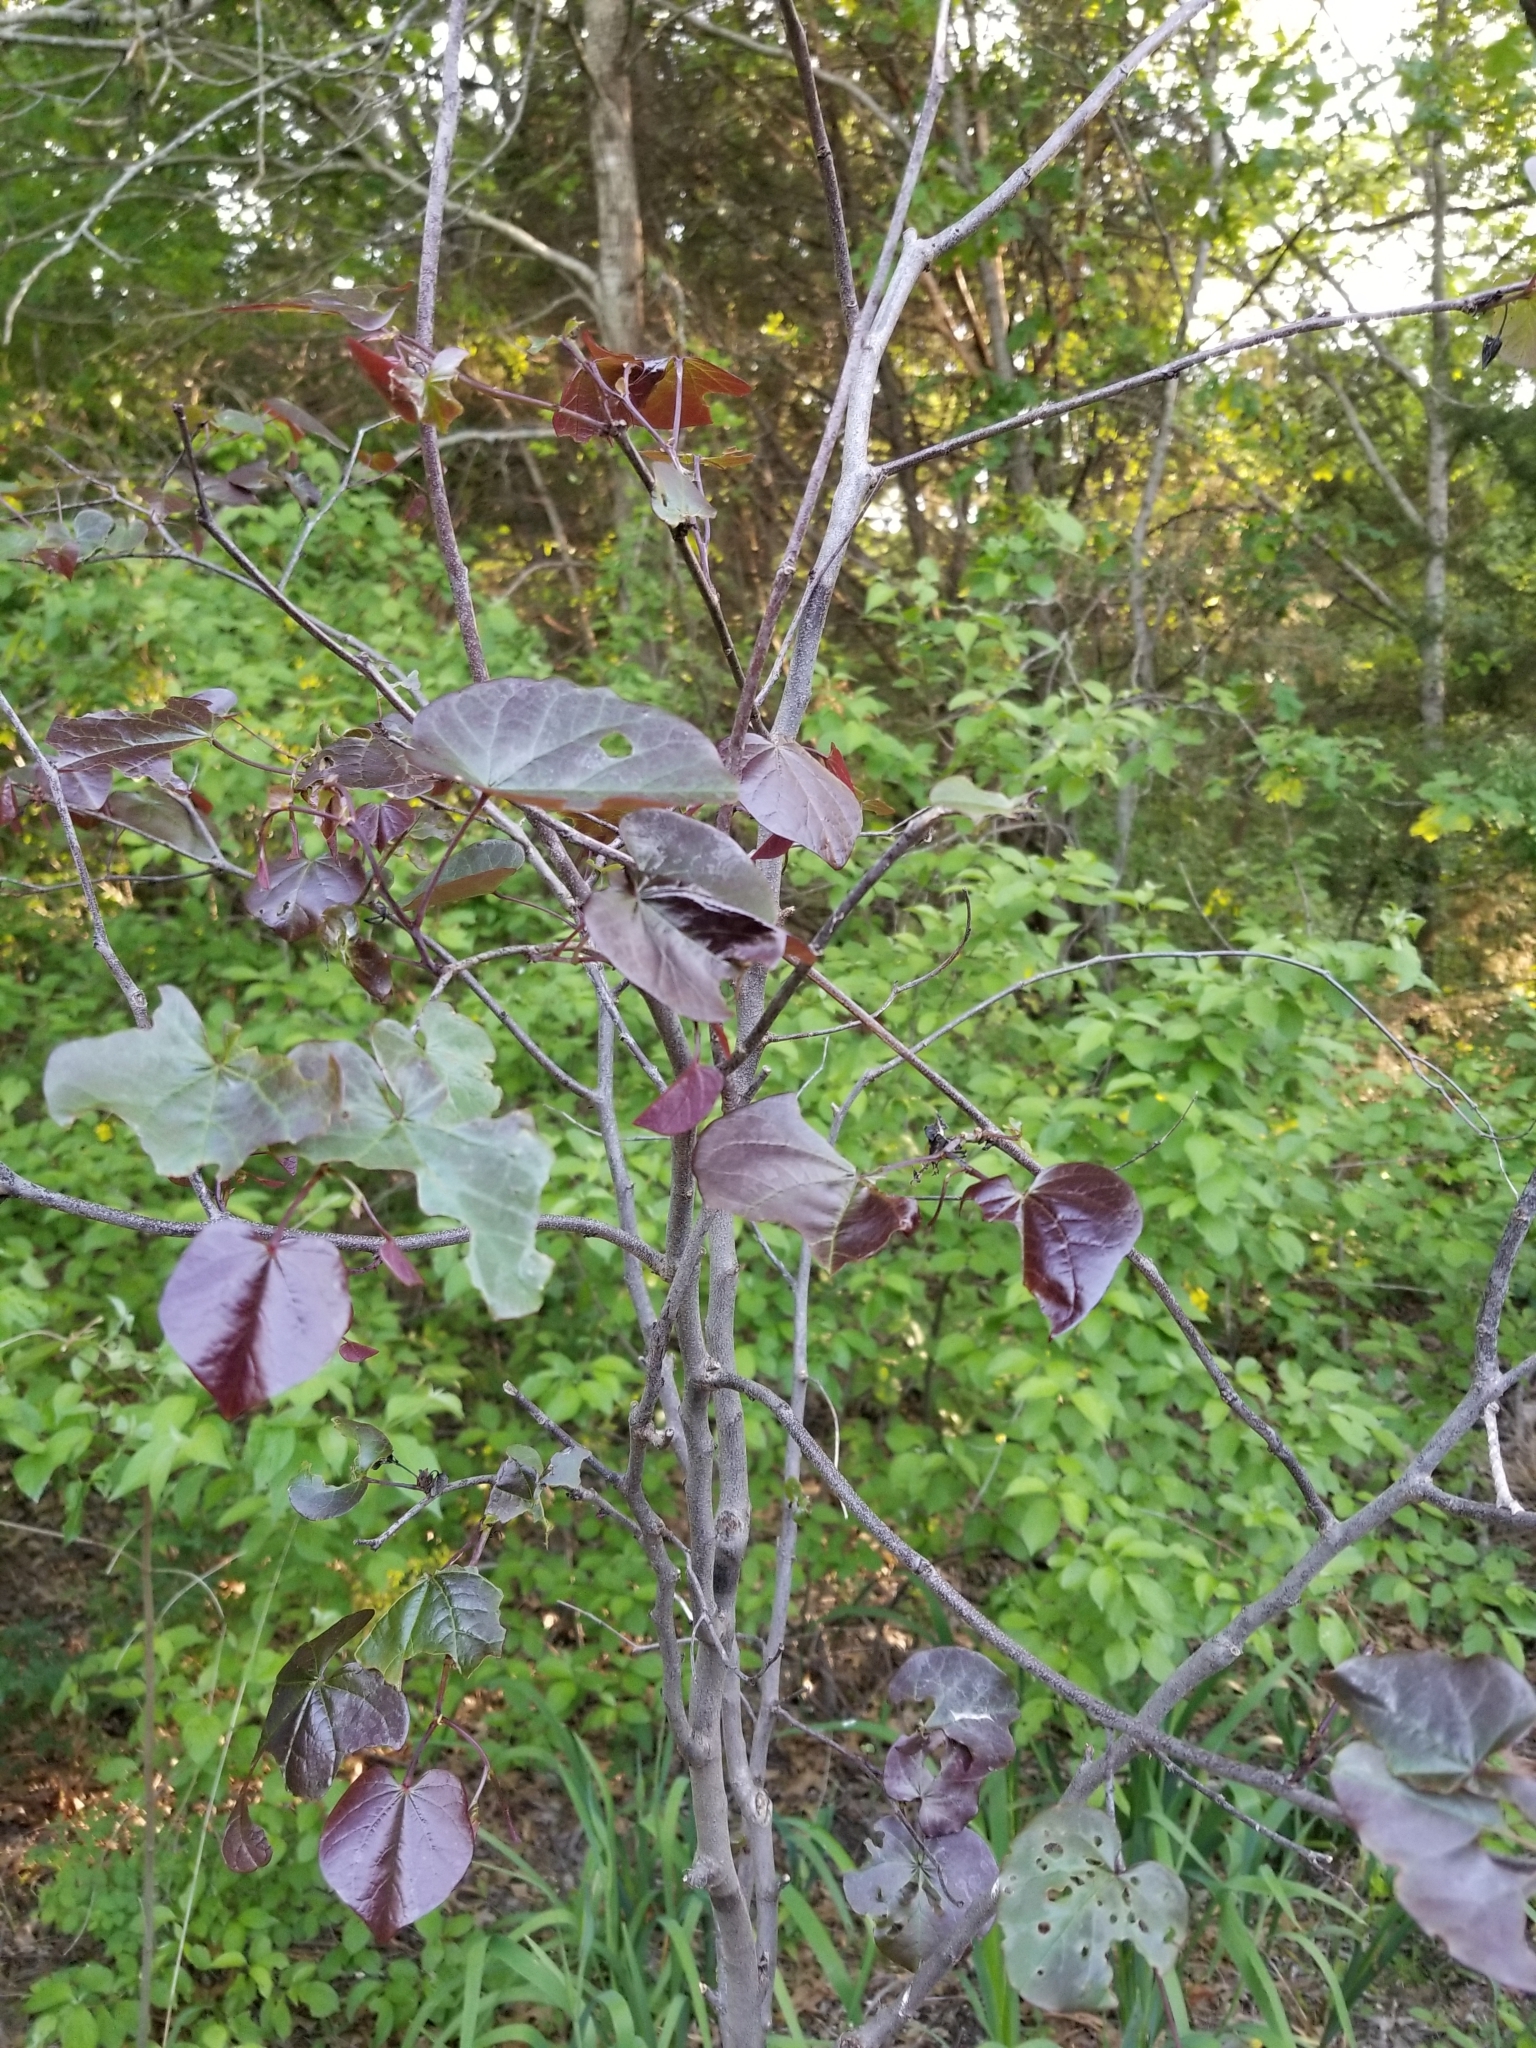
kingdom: Plantae
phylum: Tracheophyta
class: Magnoliopsida
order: Fabales
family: Fabaceae
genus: Cercis
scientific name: Cercis canadensis
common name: Eastern redbud
